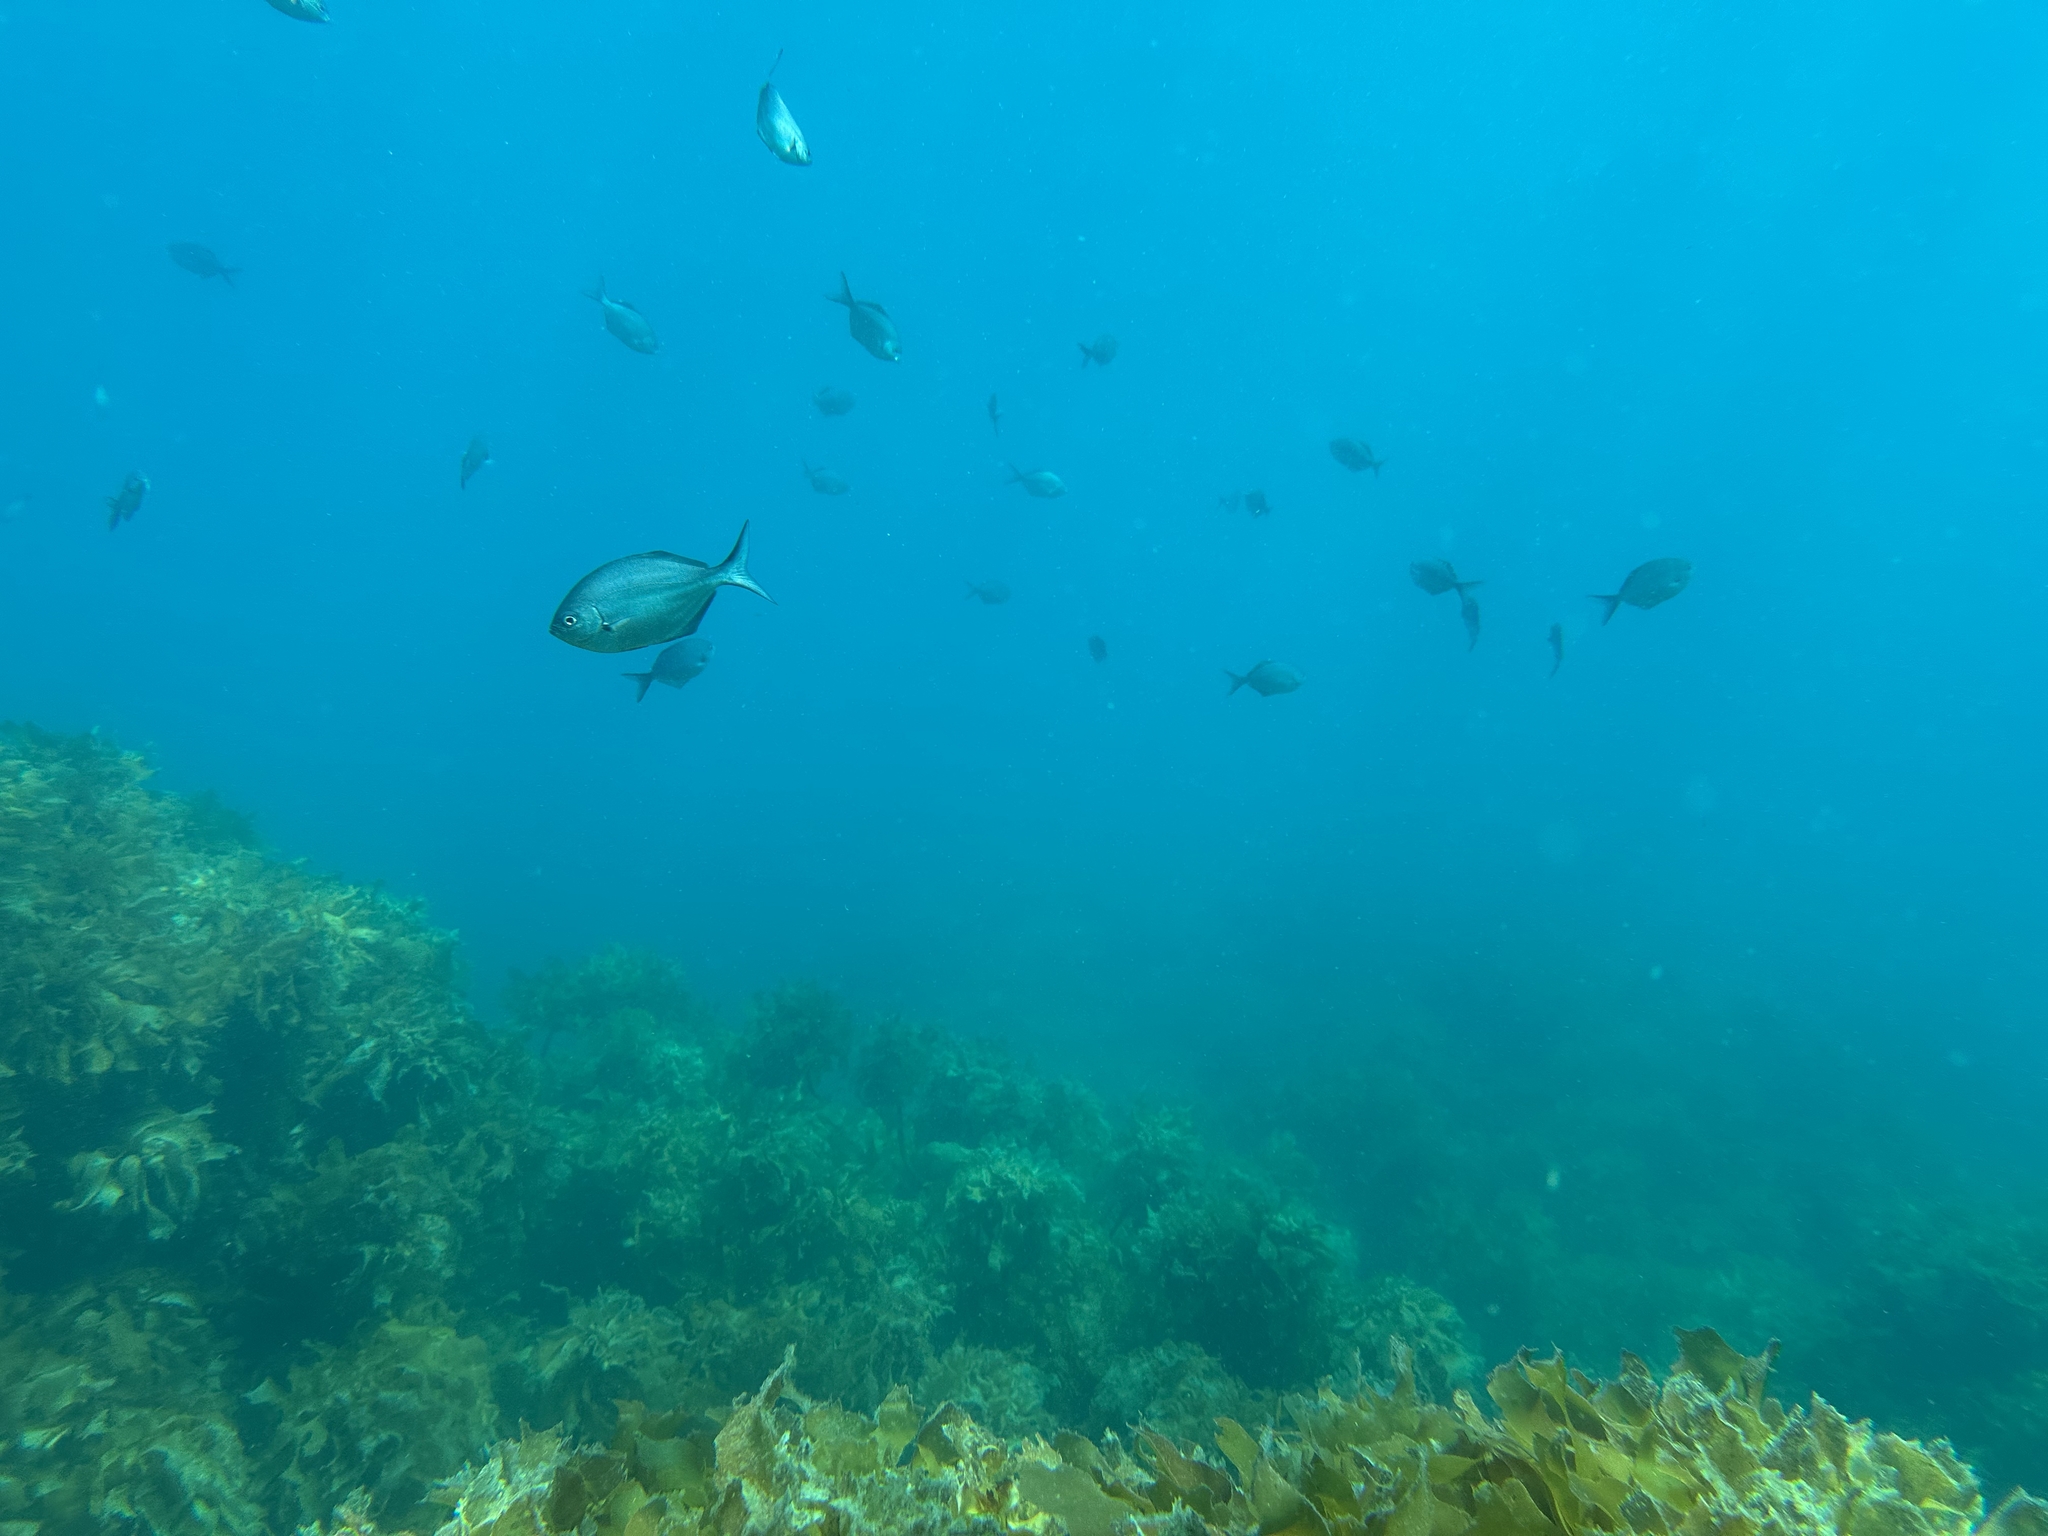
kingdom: Animalia
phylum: Chordata
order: Perciformes
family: Kyphosidae
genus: Scorpis
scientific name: Scorpis lineolata
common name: Sweep
